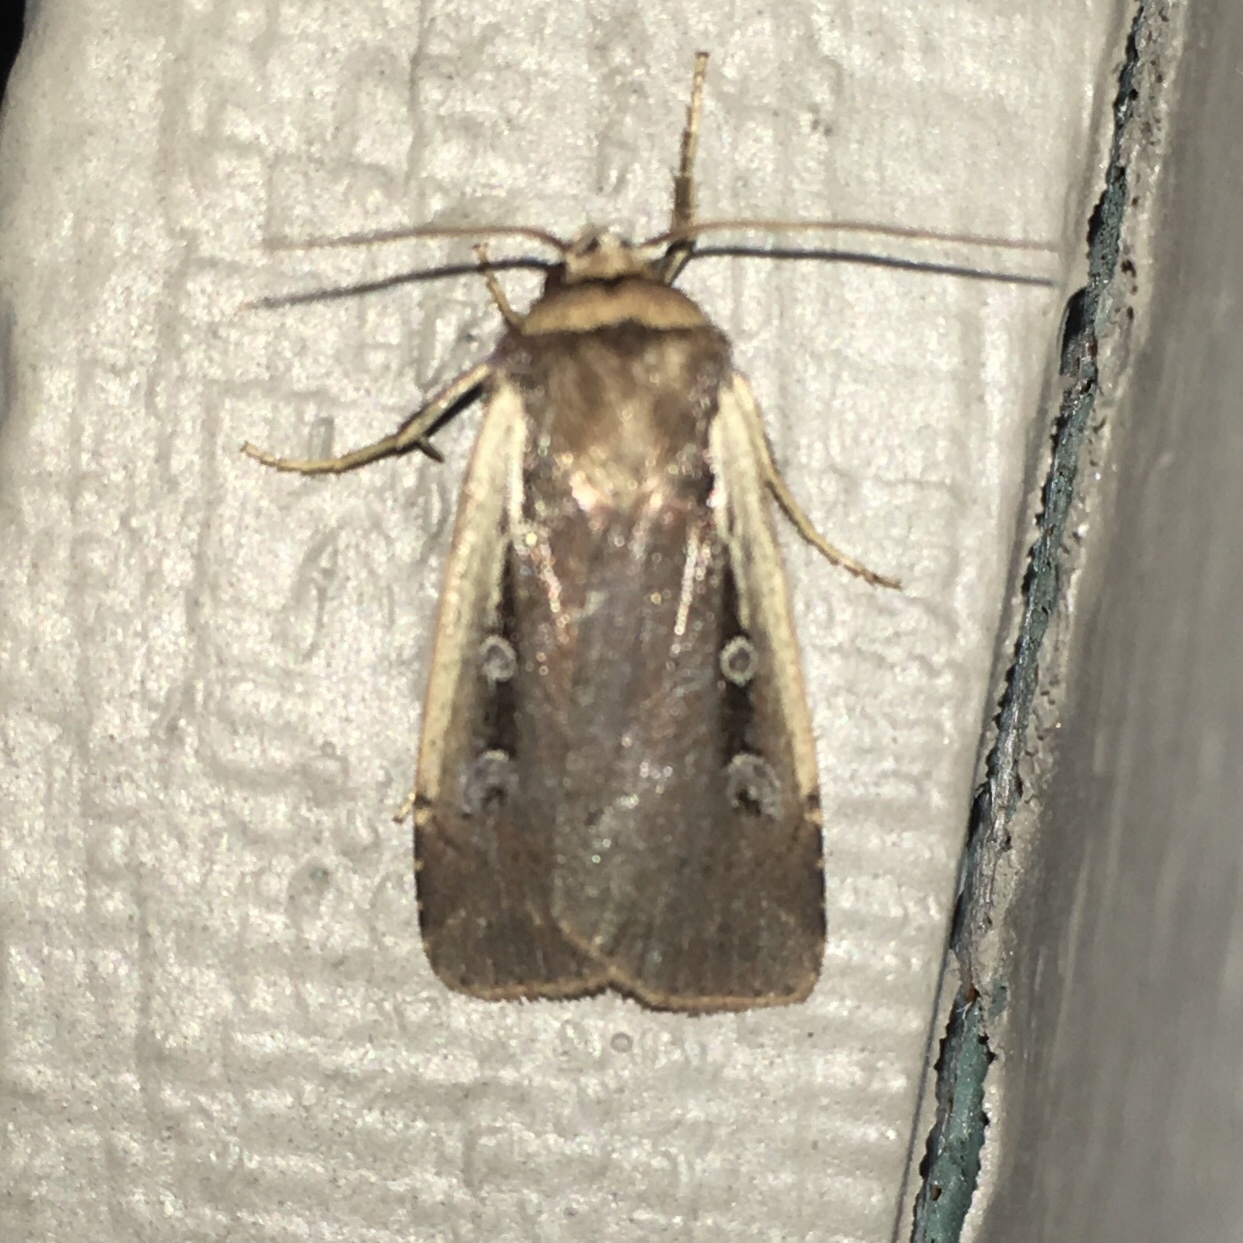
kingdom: Animalia
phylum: Arthropoda
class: Insecta
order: Lepidoptera
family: Noctuidae
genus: Ochropleura
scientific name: Ochropleura implecta
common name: Flame-shouldered dart
